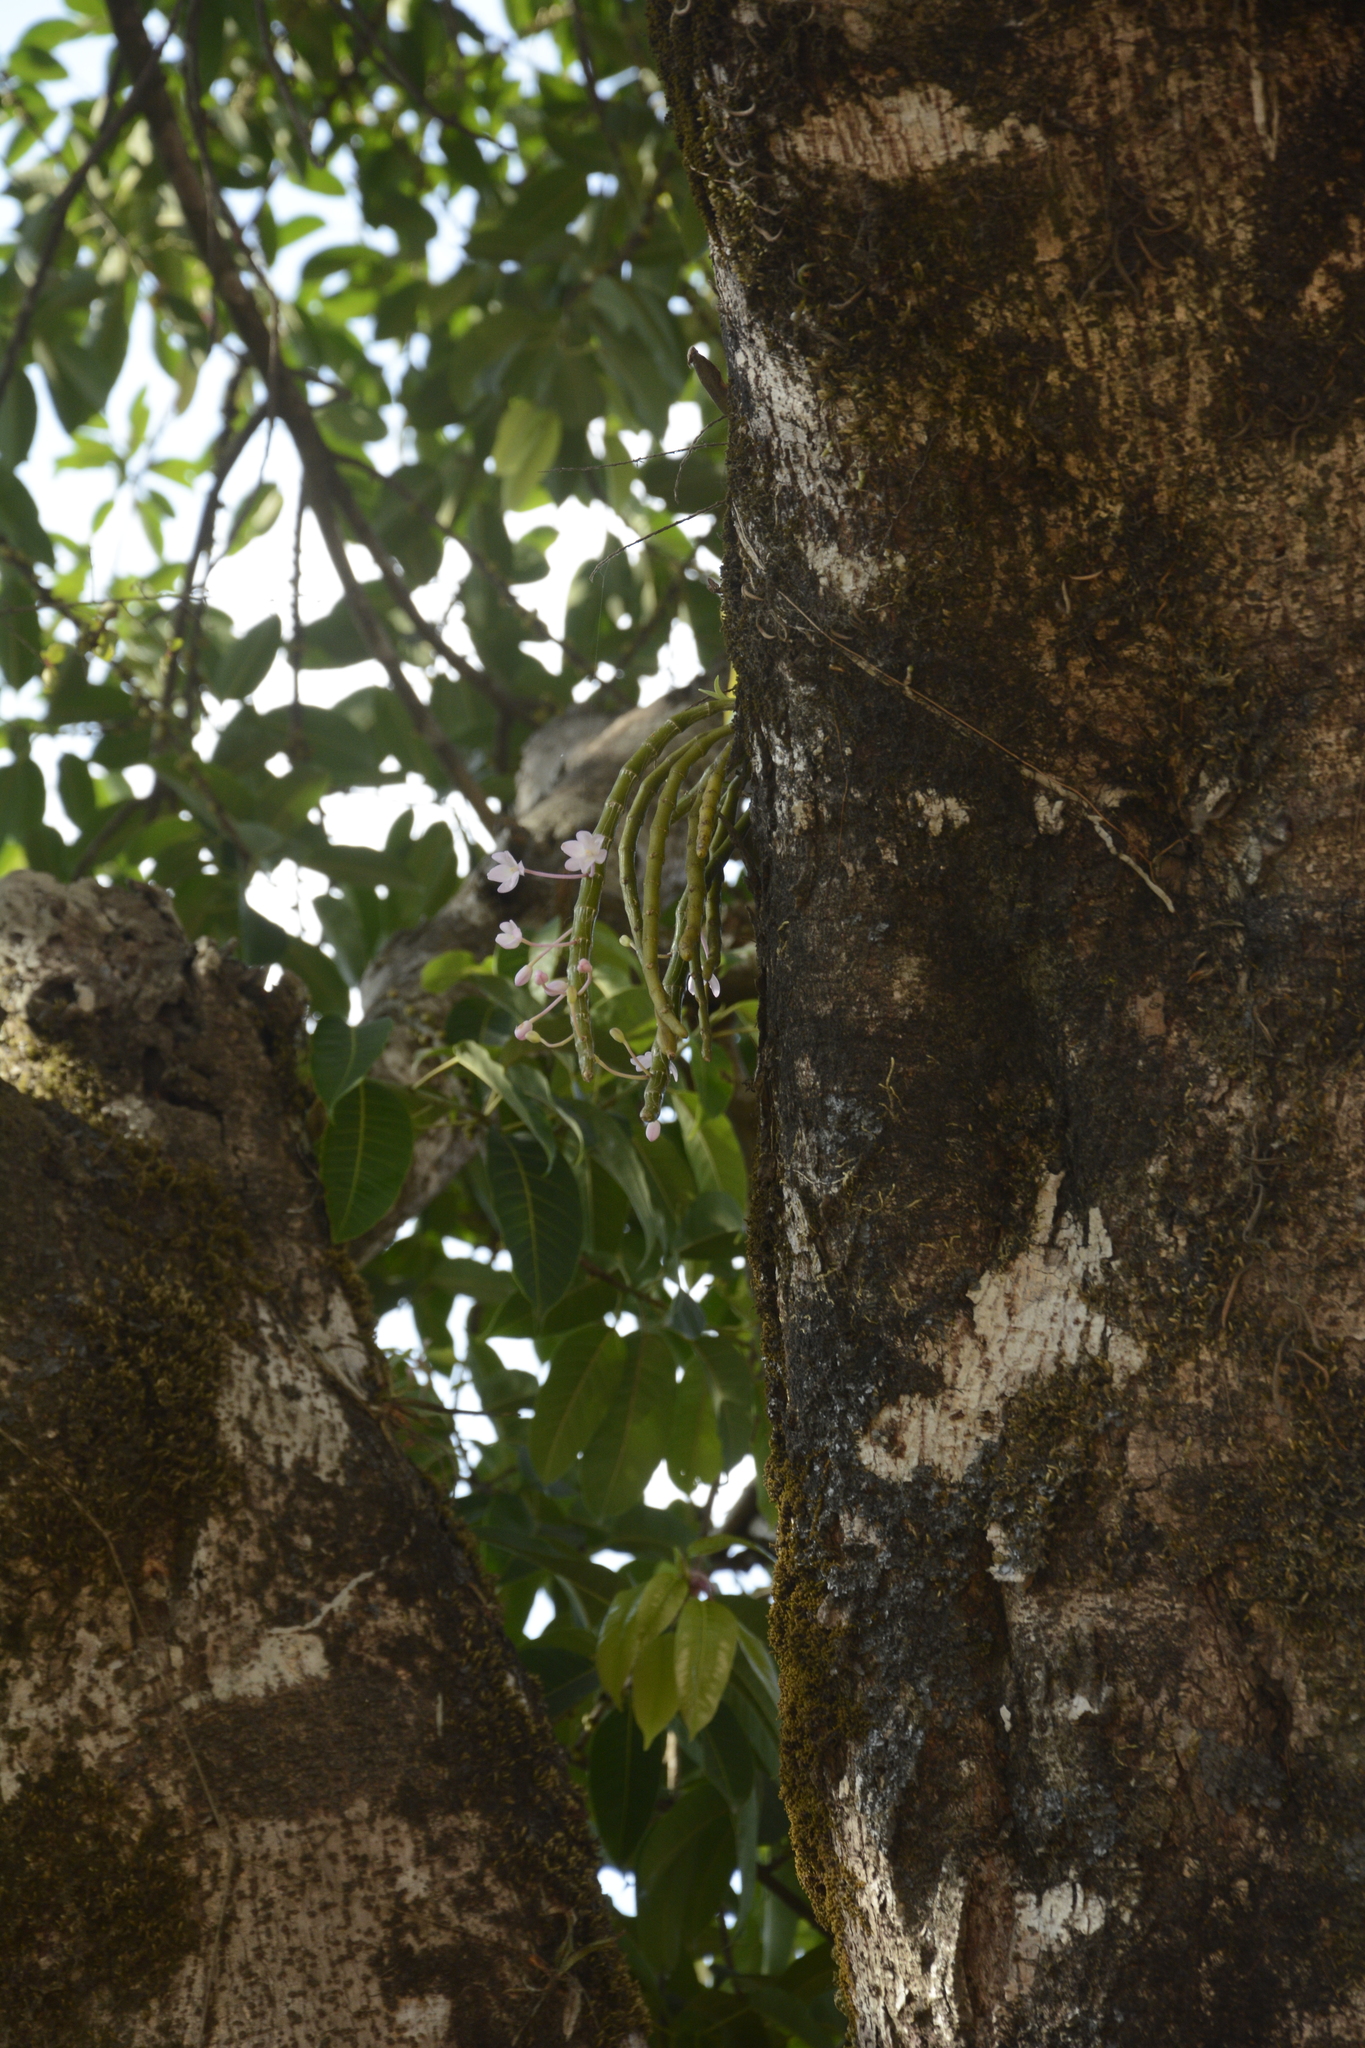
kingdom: Plantae
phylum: Tracheophyta
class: Liliopsida
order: Asparagales
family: Orchidaceae
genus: Dendrobium
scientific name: Dendrobium crepidatum
